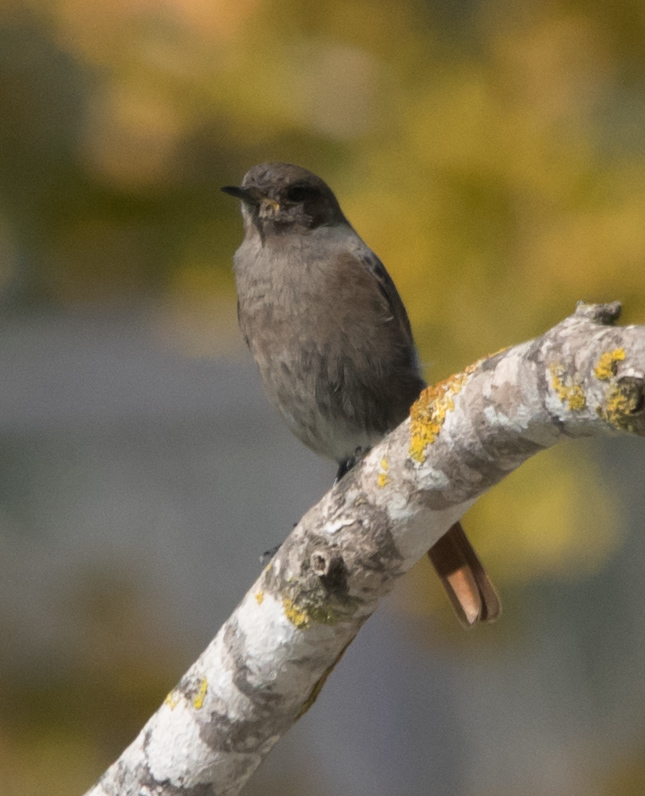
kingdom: Animalia
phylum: Chordata
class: Aves
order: Passeriformes
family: Muscicapidae
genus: Phoenicurus
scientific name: Phoenicurus ochruros
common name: Black redstart
